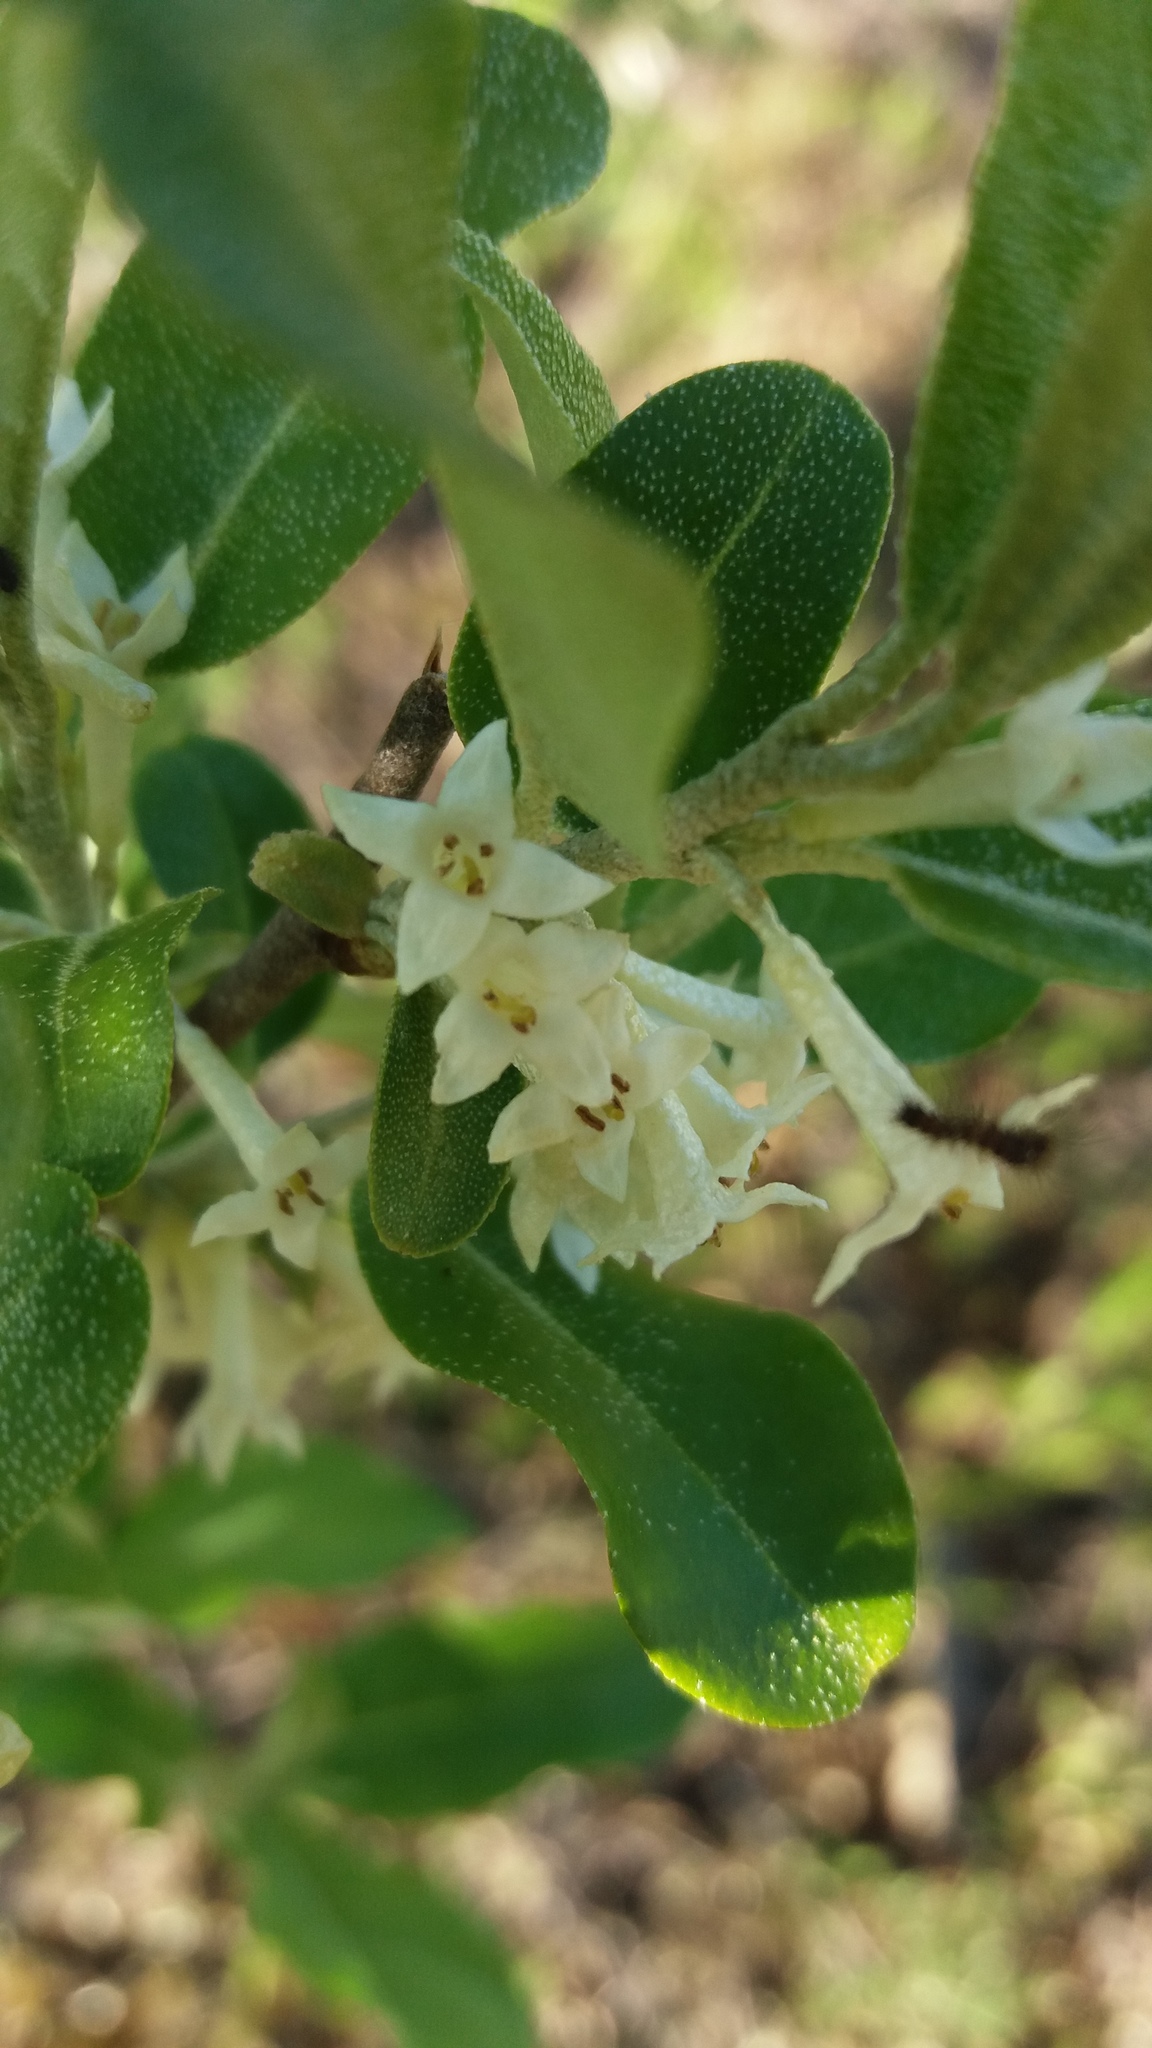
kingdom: Plantae
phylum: Tracheophyta
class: Magnoliopsida
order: Rosales
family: Elaeagnaceae
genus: Elaeagnus
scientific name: Elaeagnus umbellata
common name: Autumn olive
